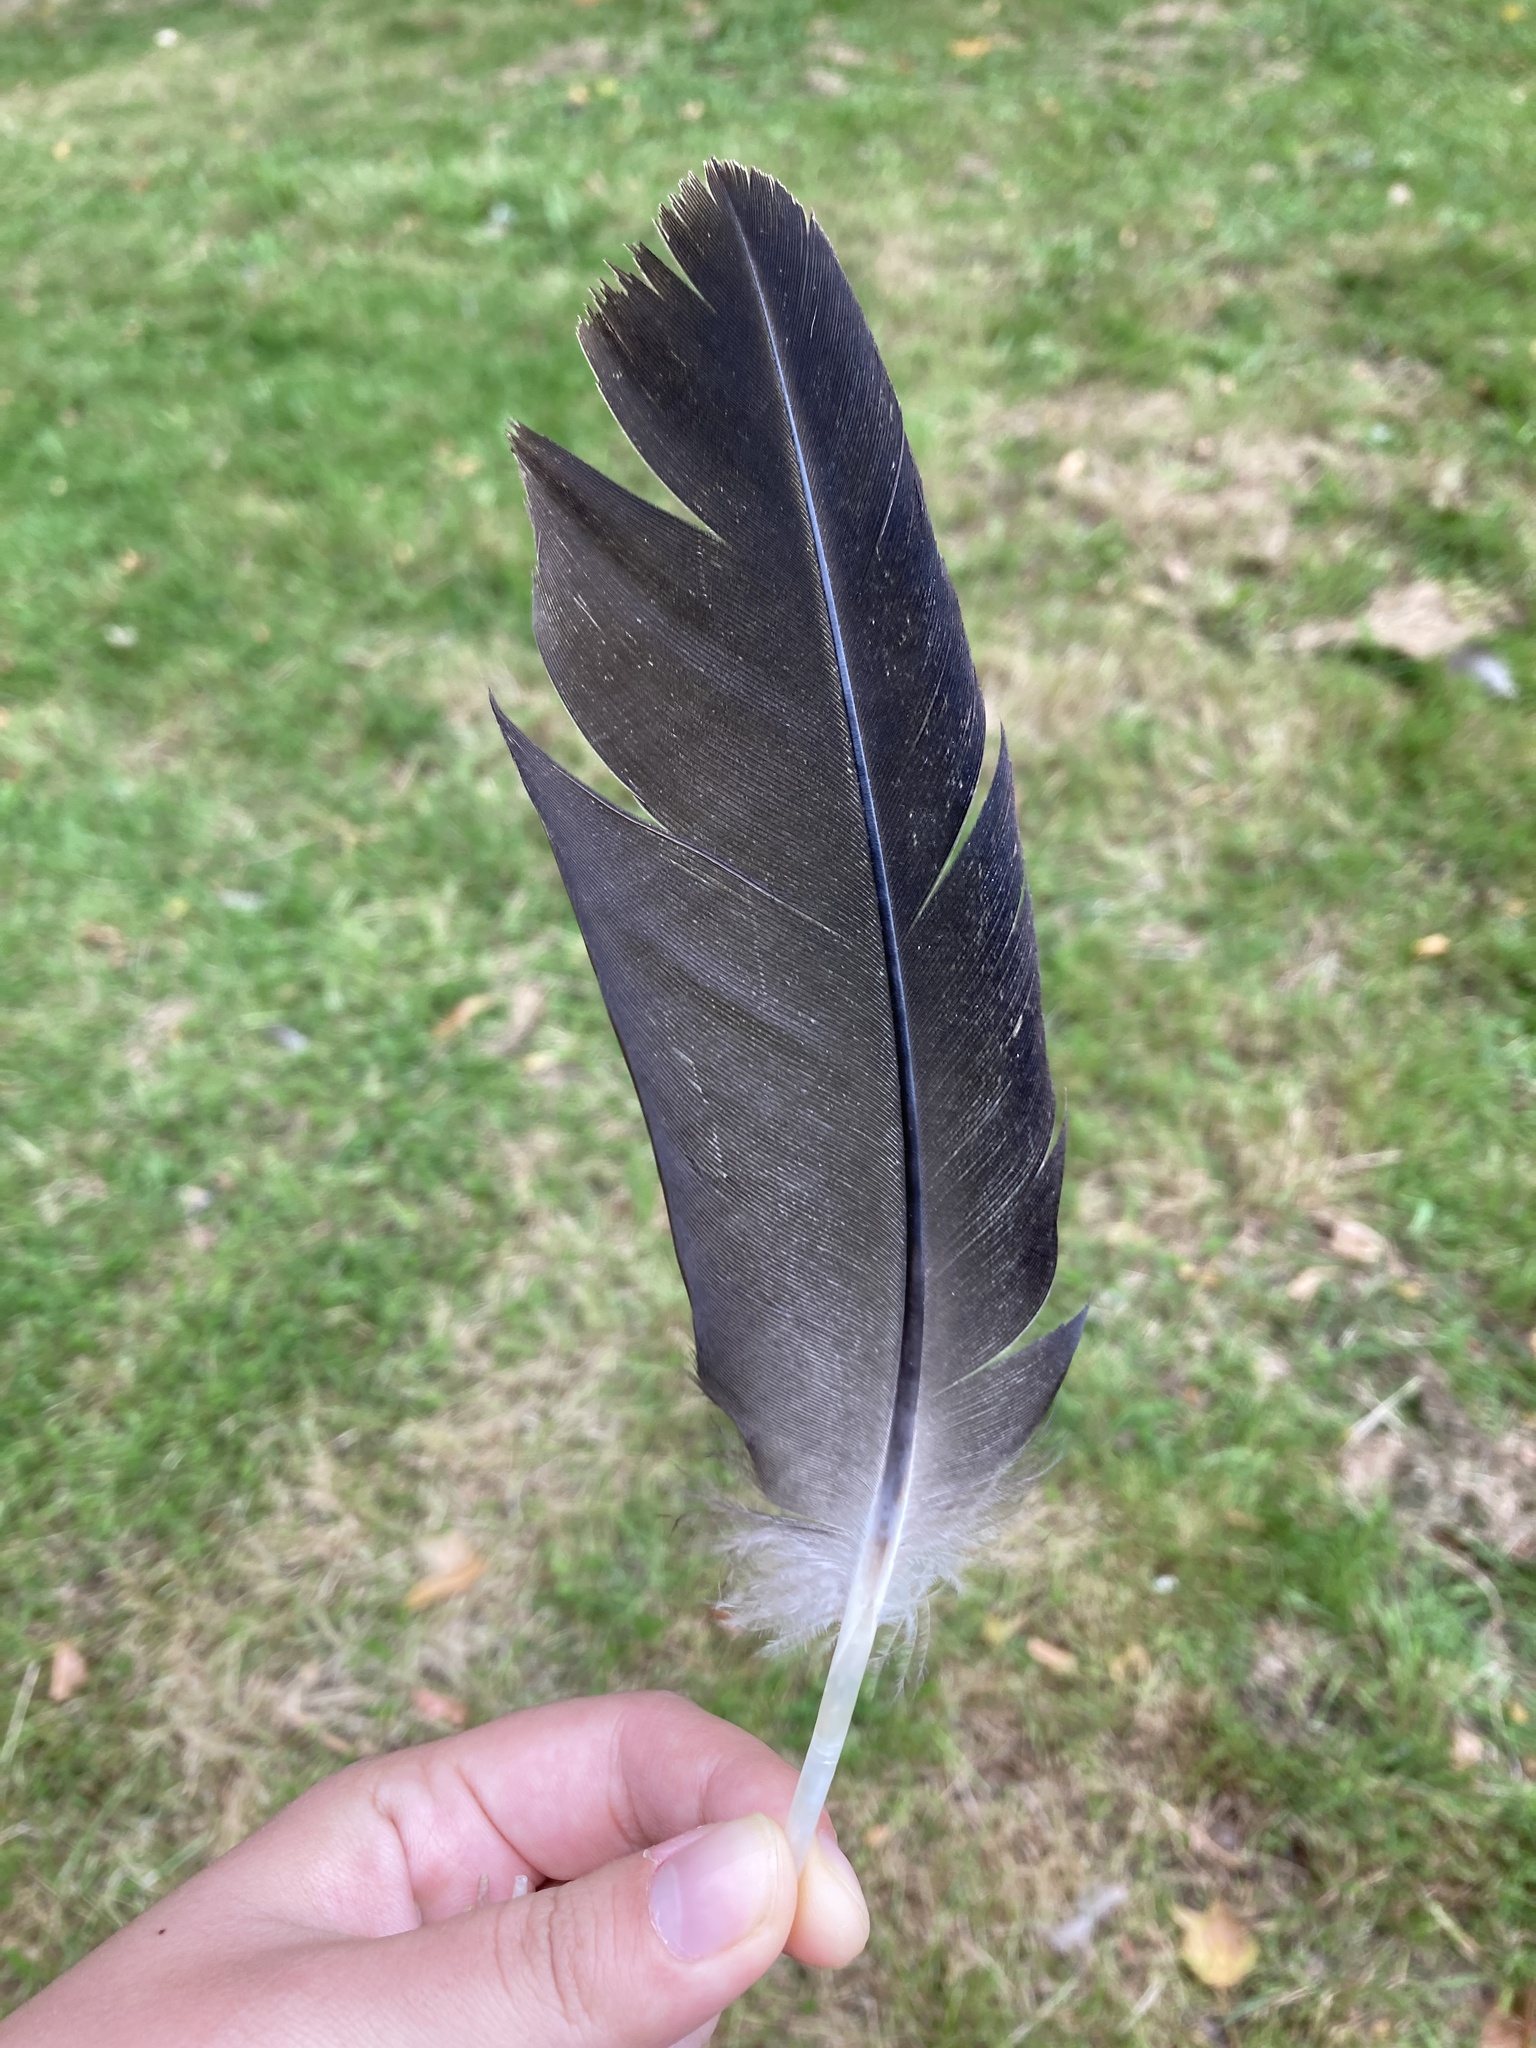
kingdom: Animalia
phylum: Chordata
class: Aves
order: Anseriformes
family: Anatidae
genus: Branta
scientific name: Branta canadensis
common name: Canada goose
